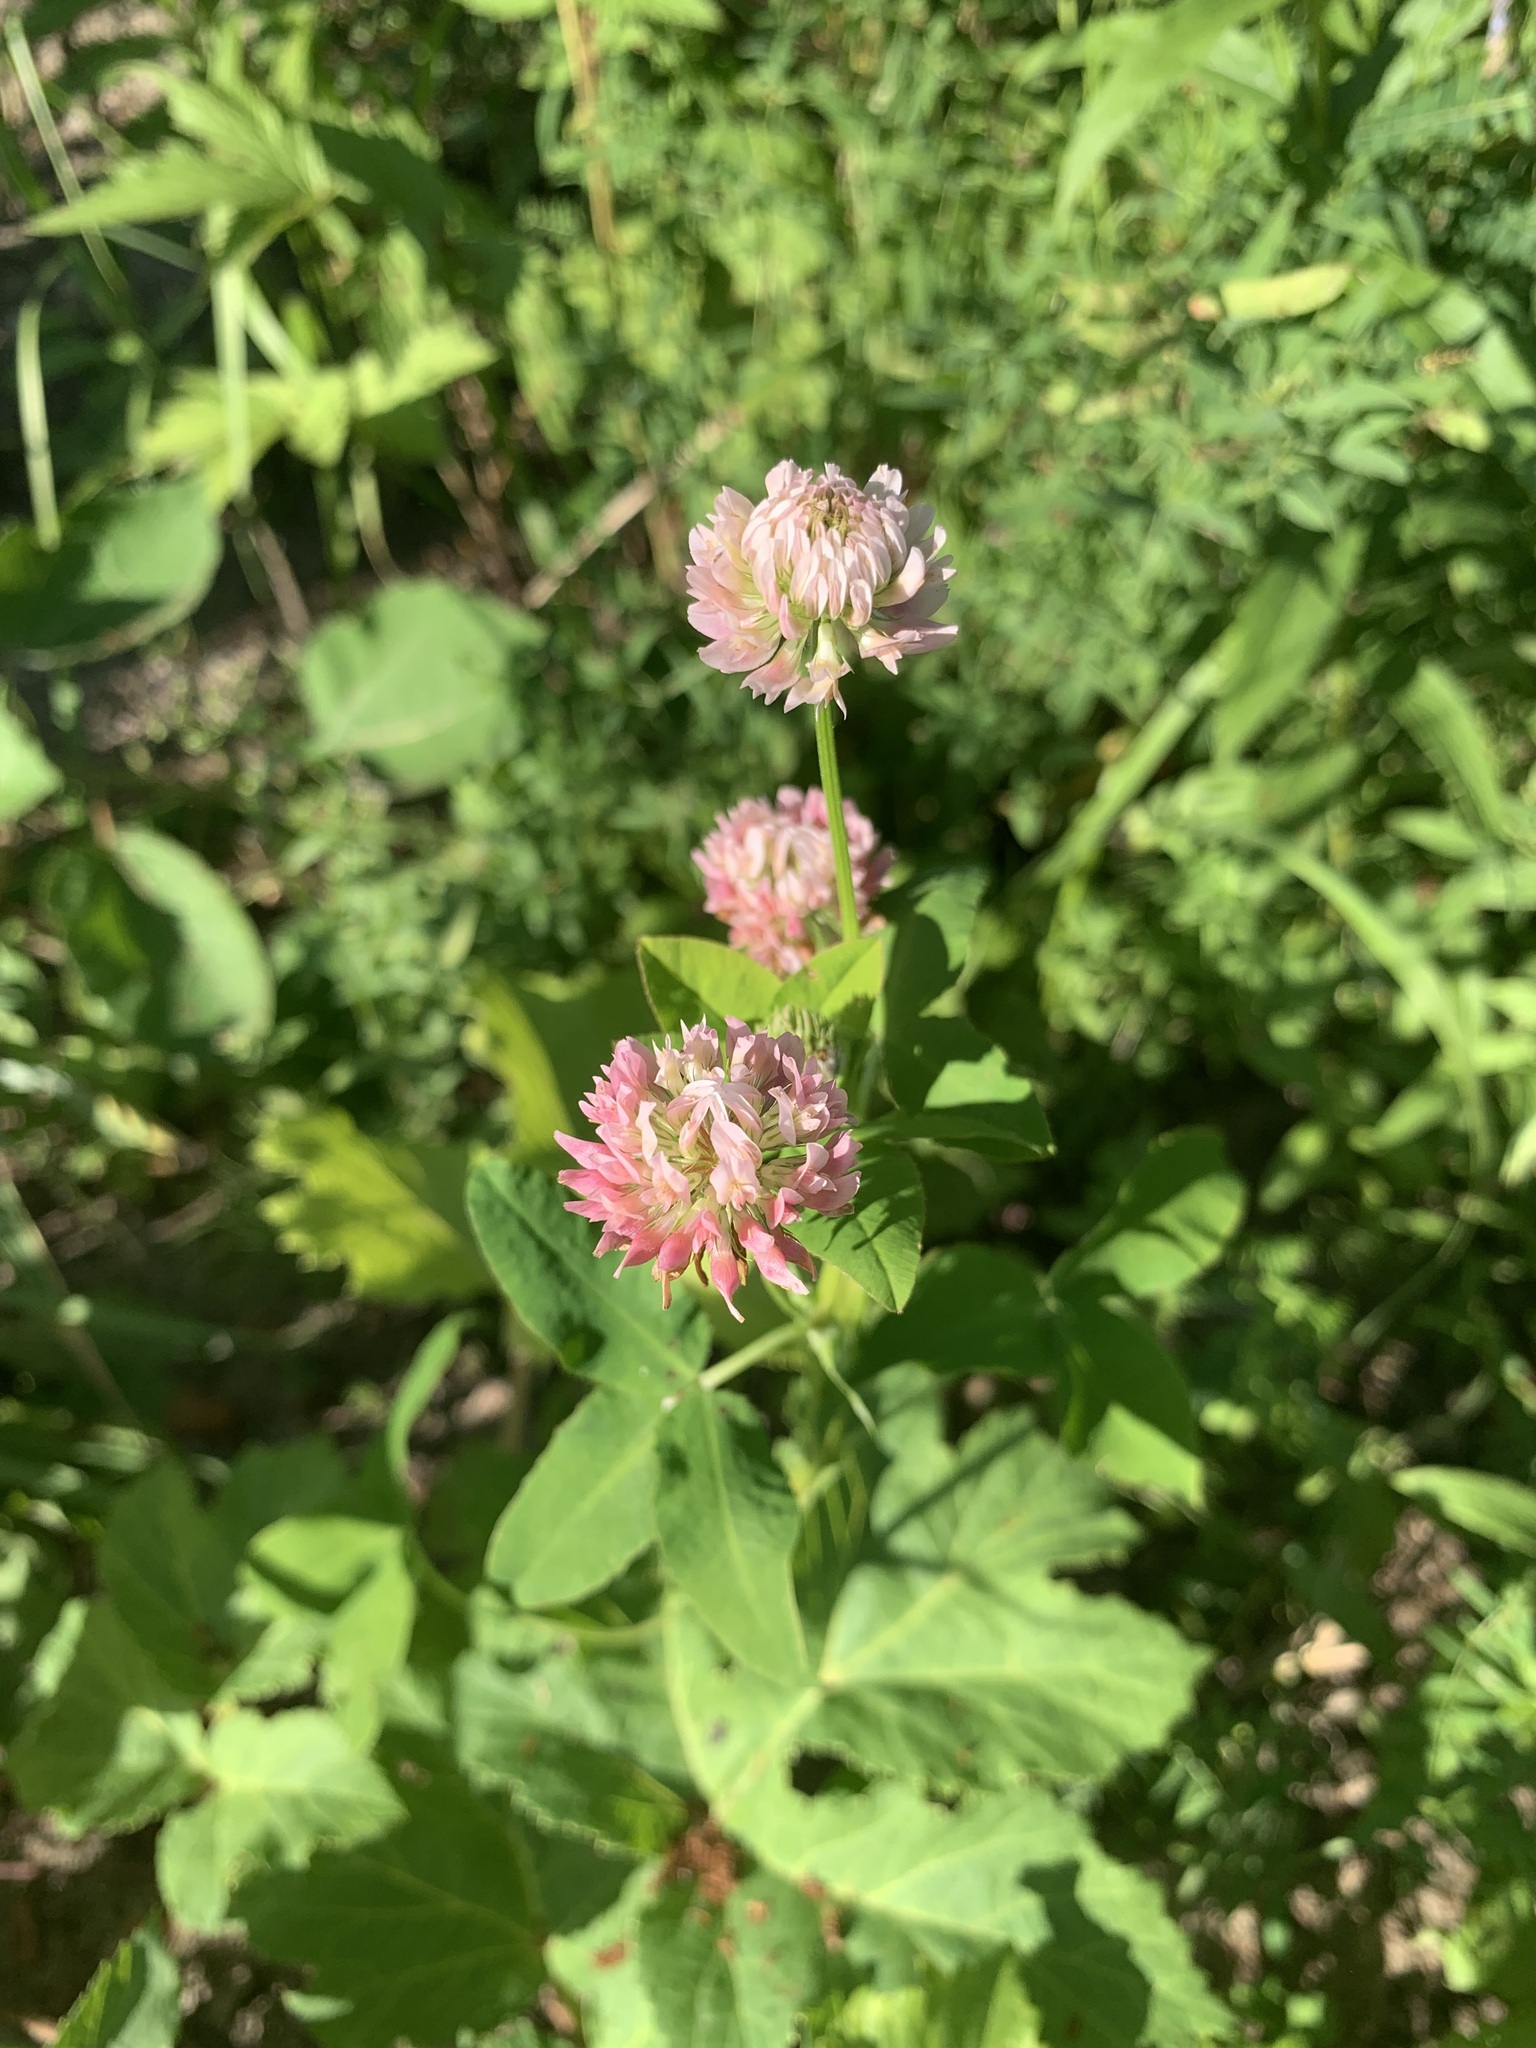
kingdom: Plantae
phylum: Tracheophyta
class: Magnoliopsida
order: Fabales
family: Fabaceae
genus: Trifolium
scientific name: Trifolium hybridum
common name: Alsike clover
